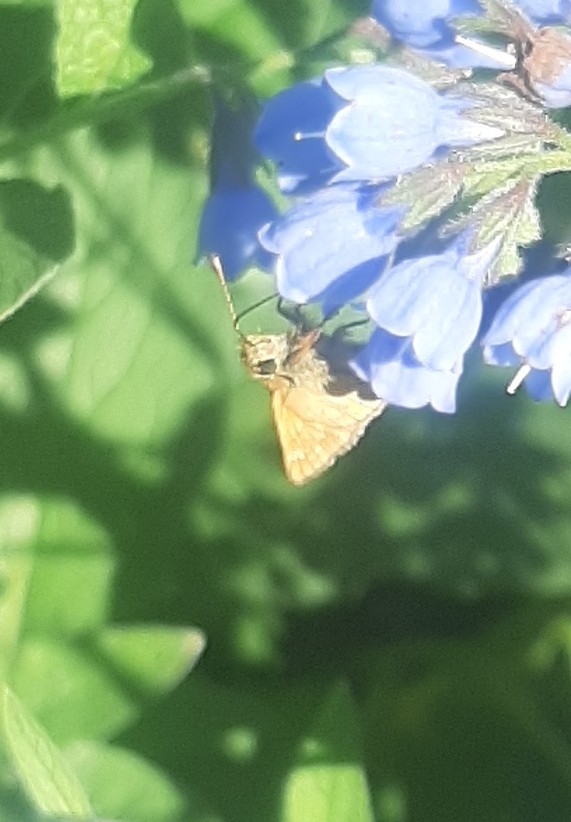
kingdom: Animalia
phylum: Arthropoda
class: Insecta
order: Lepidoptera
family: Hesperiidae
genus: Ochlodes
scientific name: Ochlodes venata
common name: Large skipper
